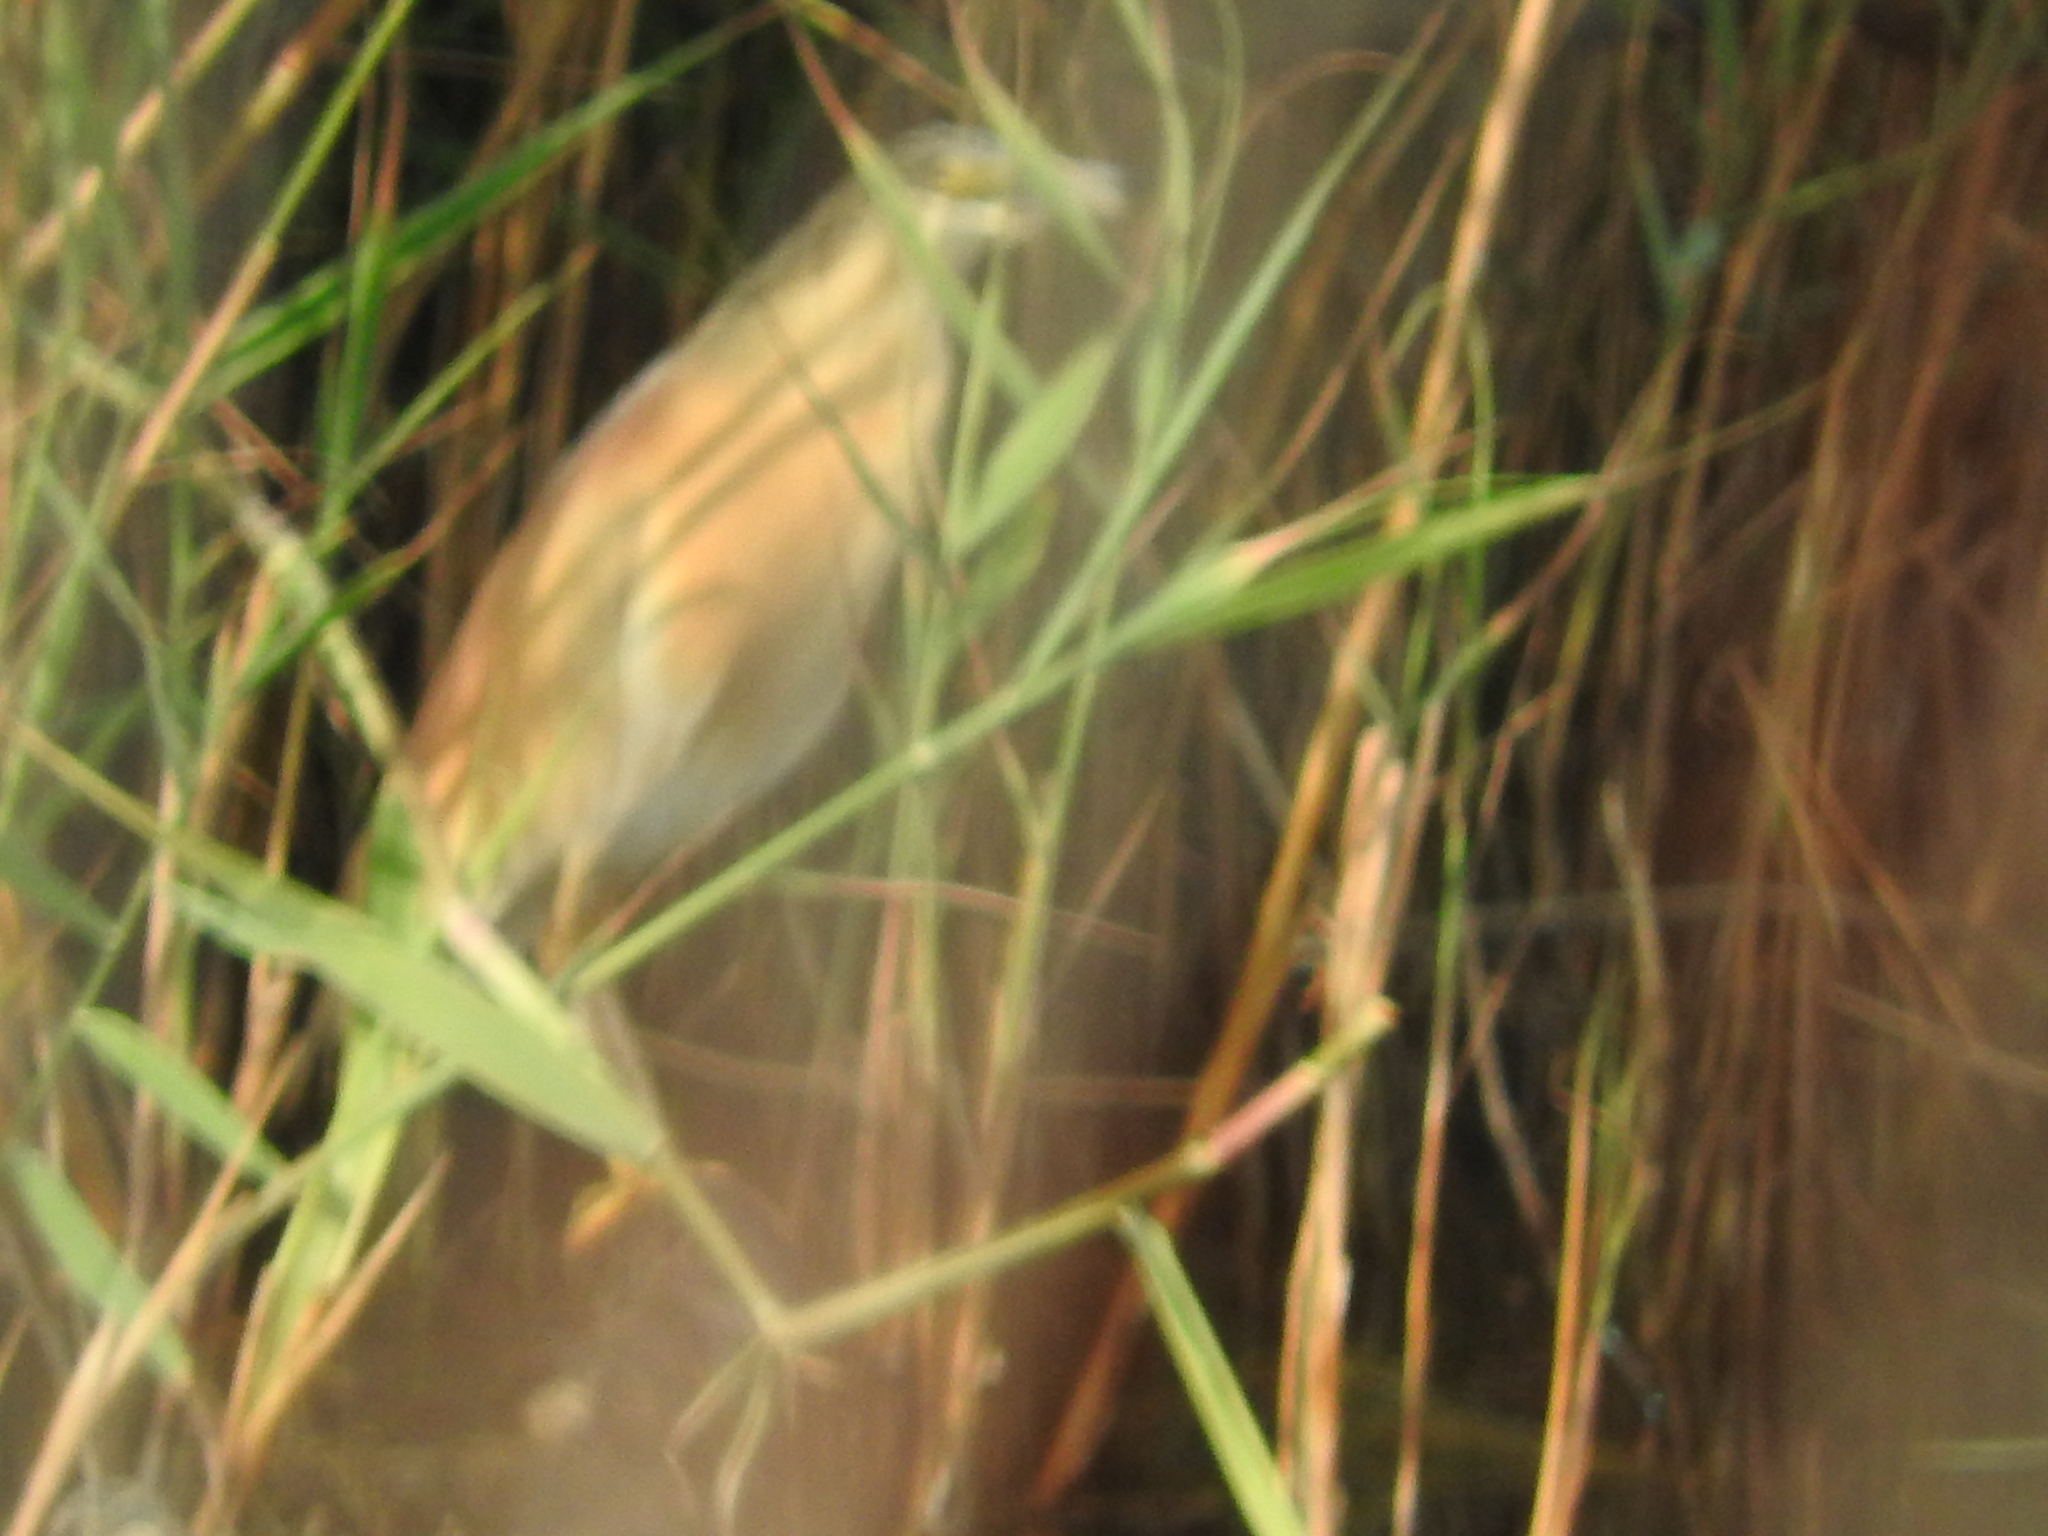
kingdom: Animalia
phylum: Chordata
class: Aves
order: Pelecaniformes
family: Ardeidae
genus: Ardeola
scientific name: Ardeola ralloides
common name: Squacco heron
